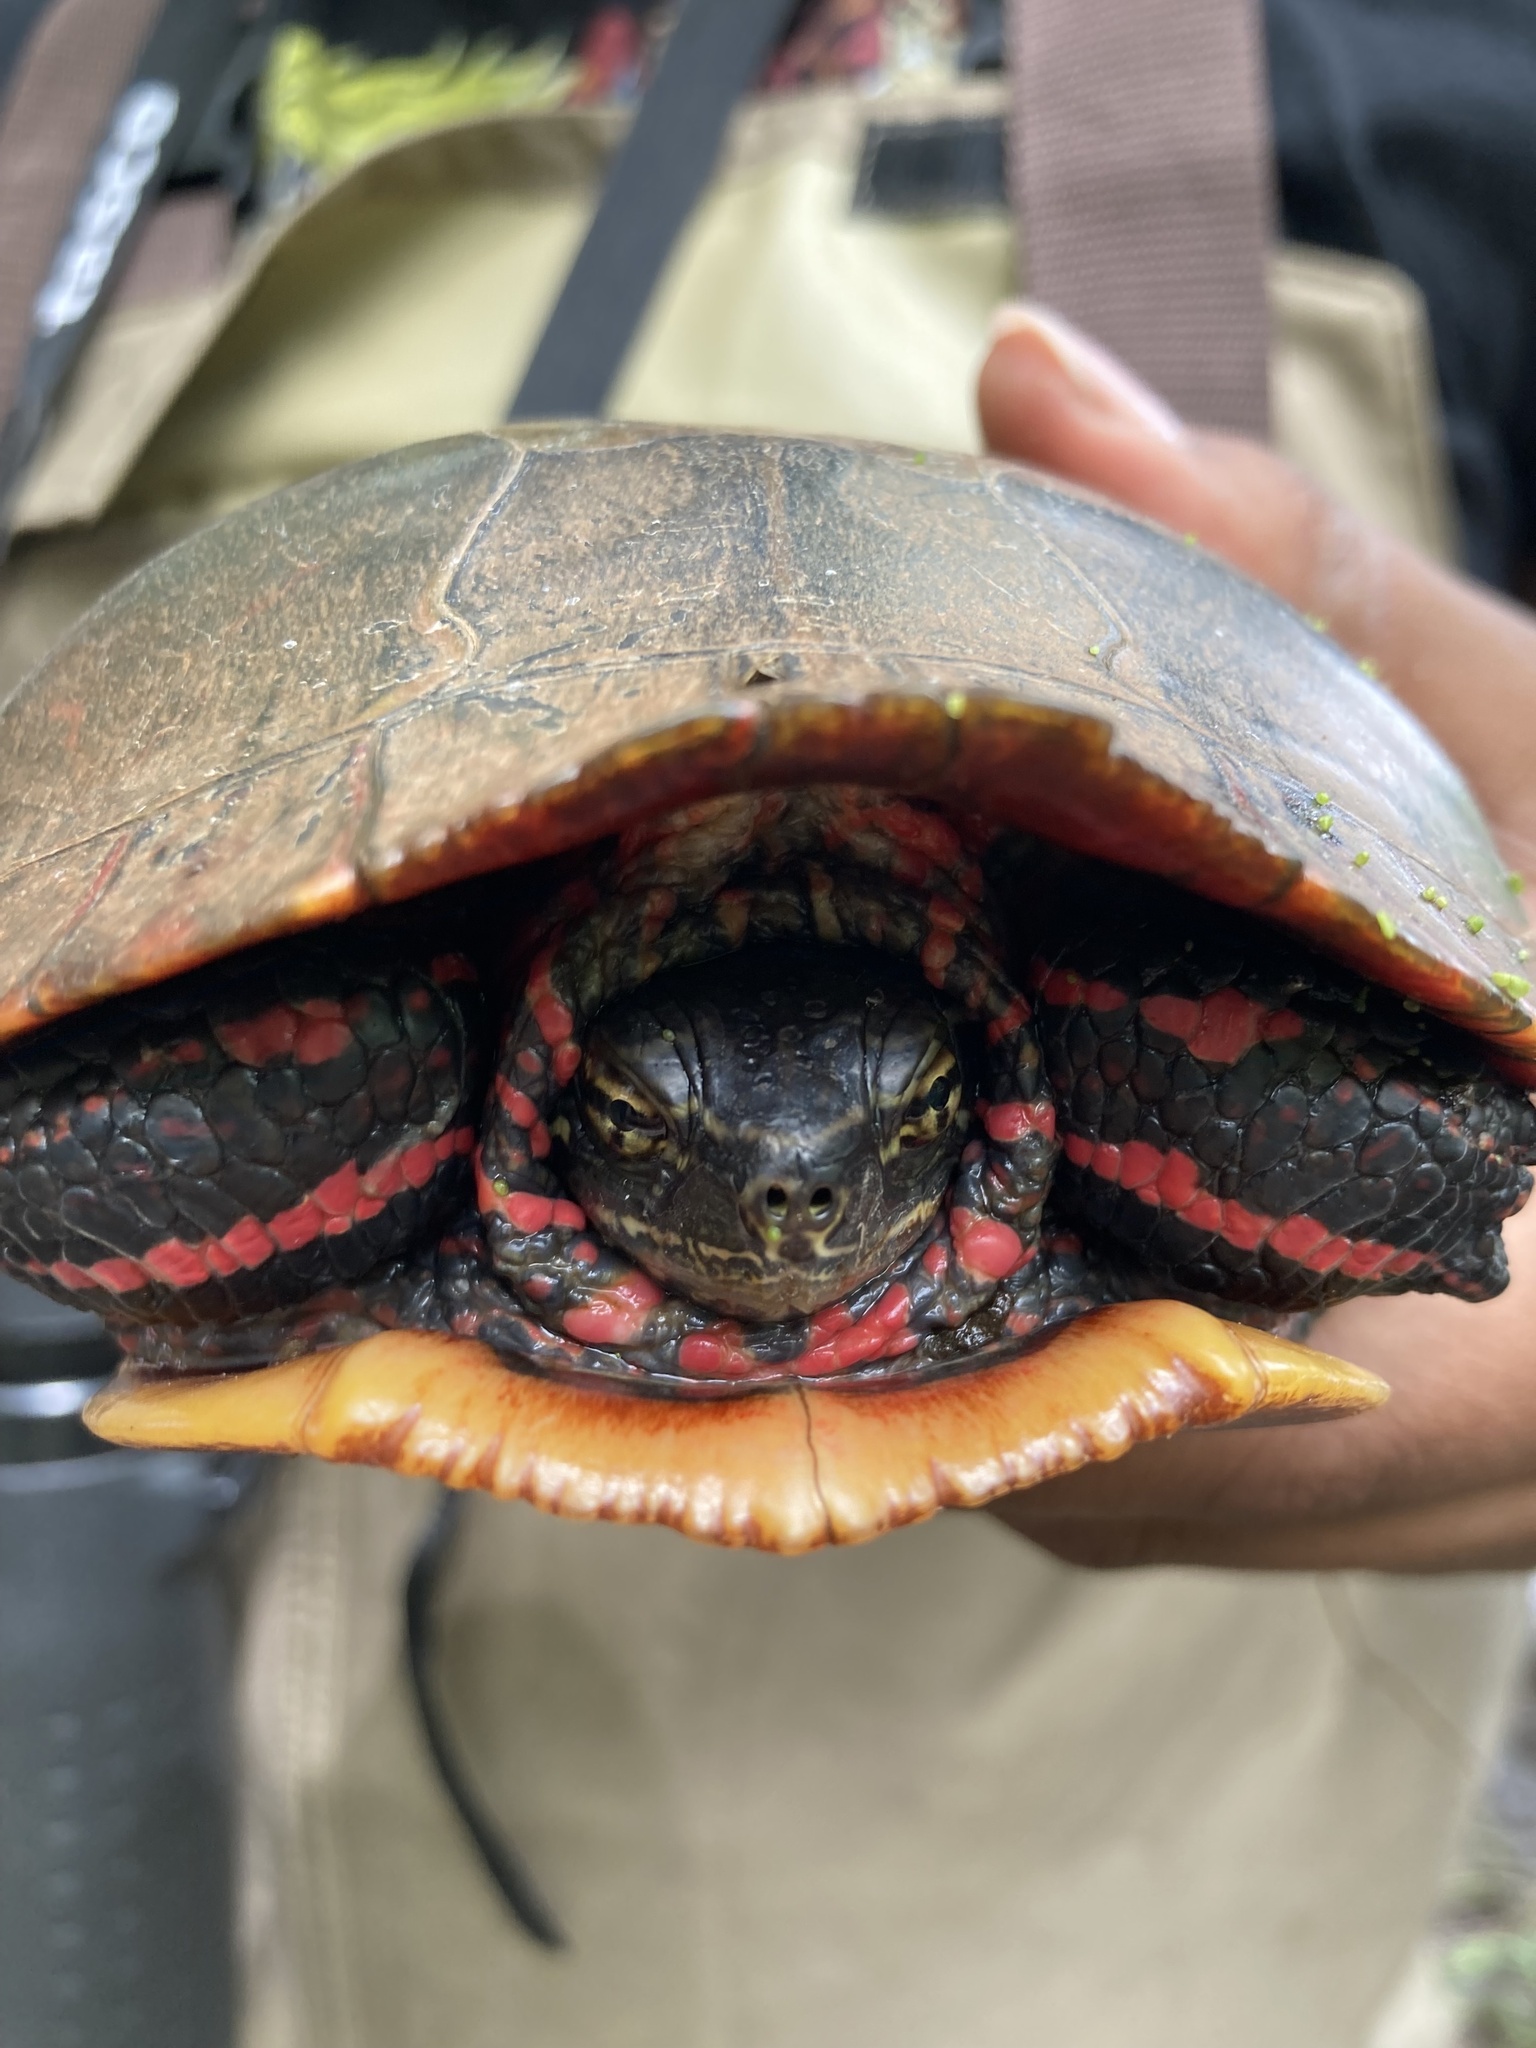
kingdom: Animalia
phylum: Chordata
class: Testudines
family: Emydidae
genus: Chrysemys
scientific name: Chrysemys picta
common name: Painted turtle
